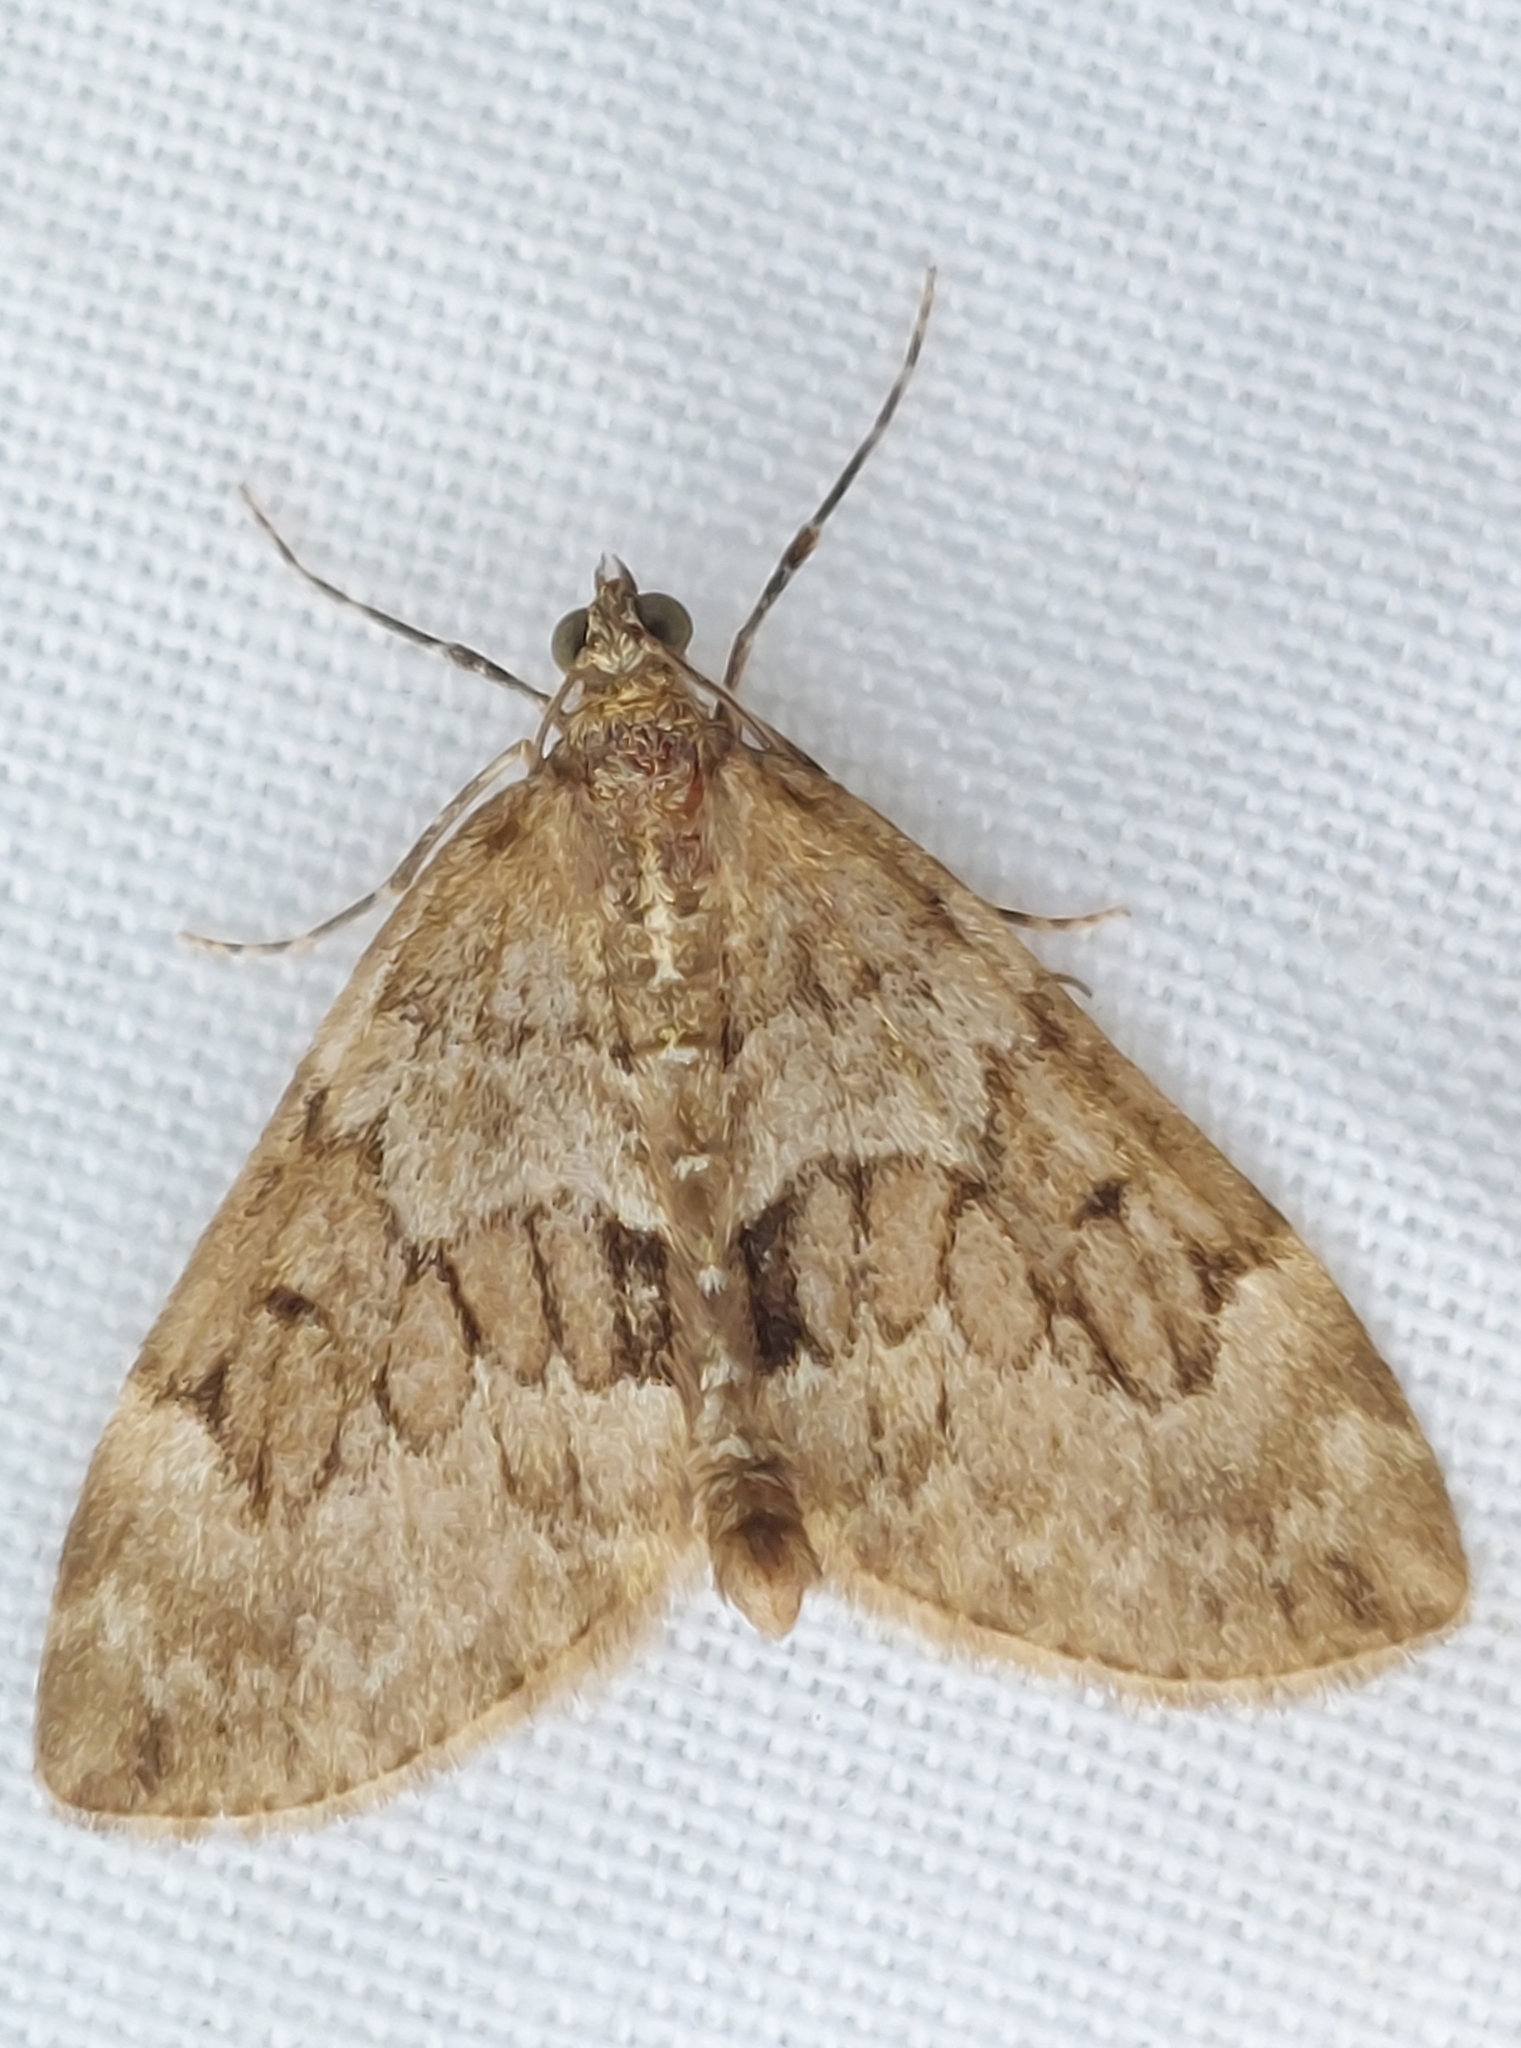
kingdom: Animalia
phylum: Arthropoda
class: Insecta
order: Lepidoptera
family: Geometridae
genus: Thera
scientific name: Thera britannica
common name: Spruce carpet
